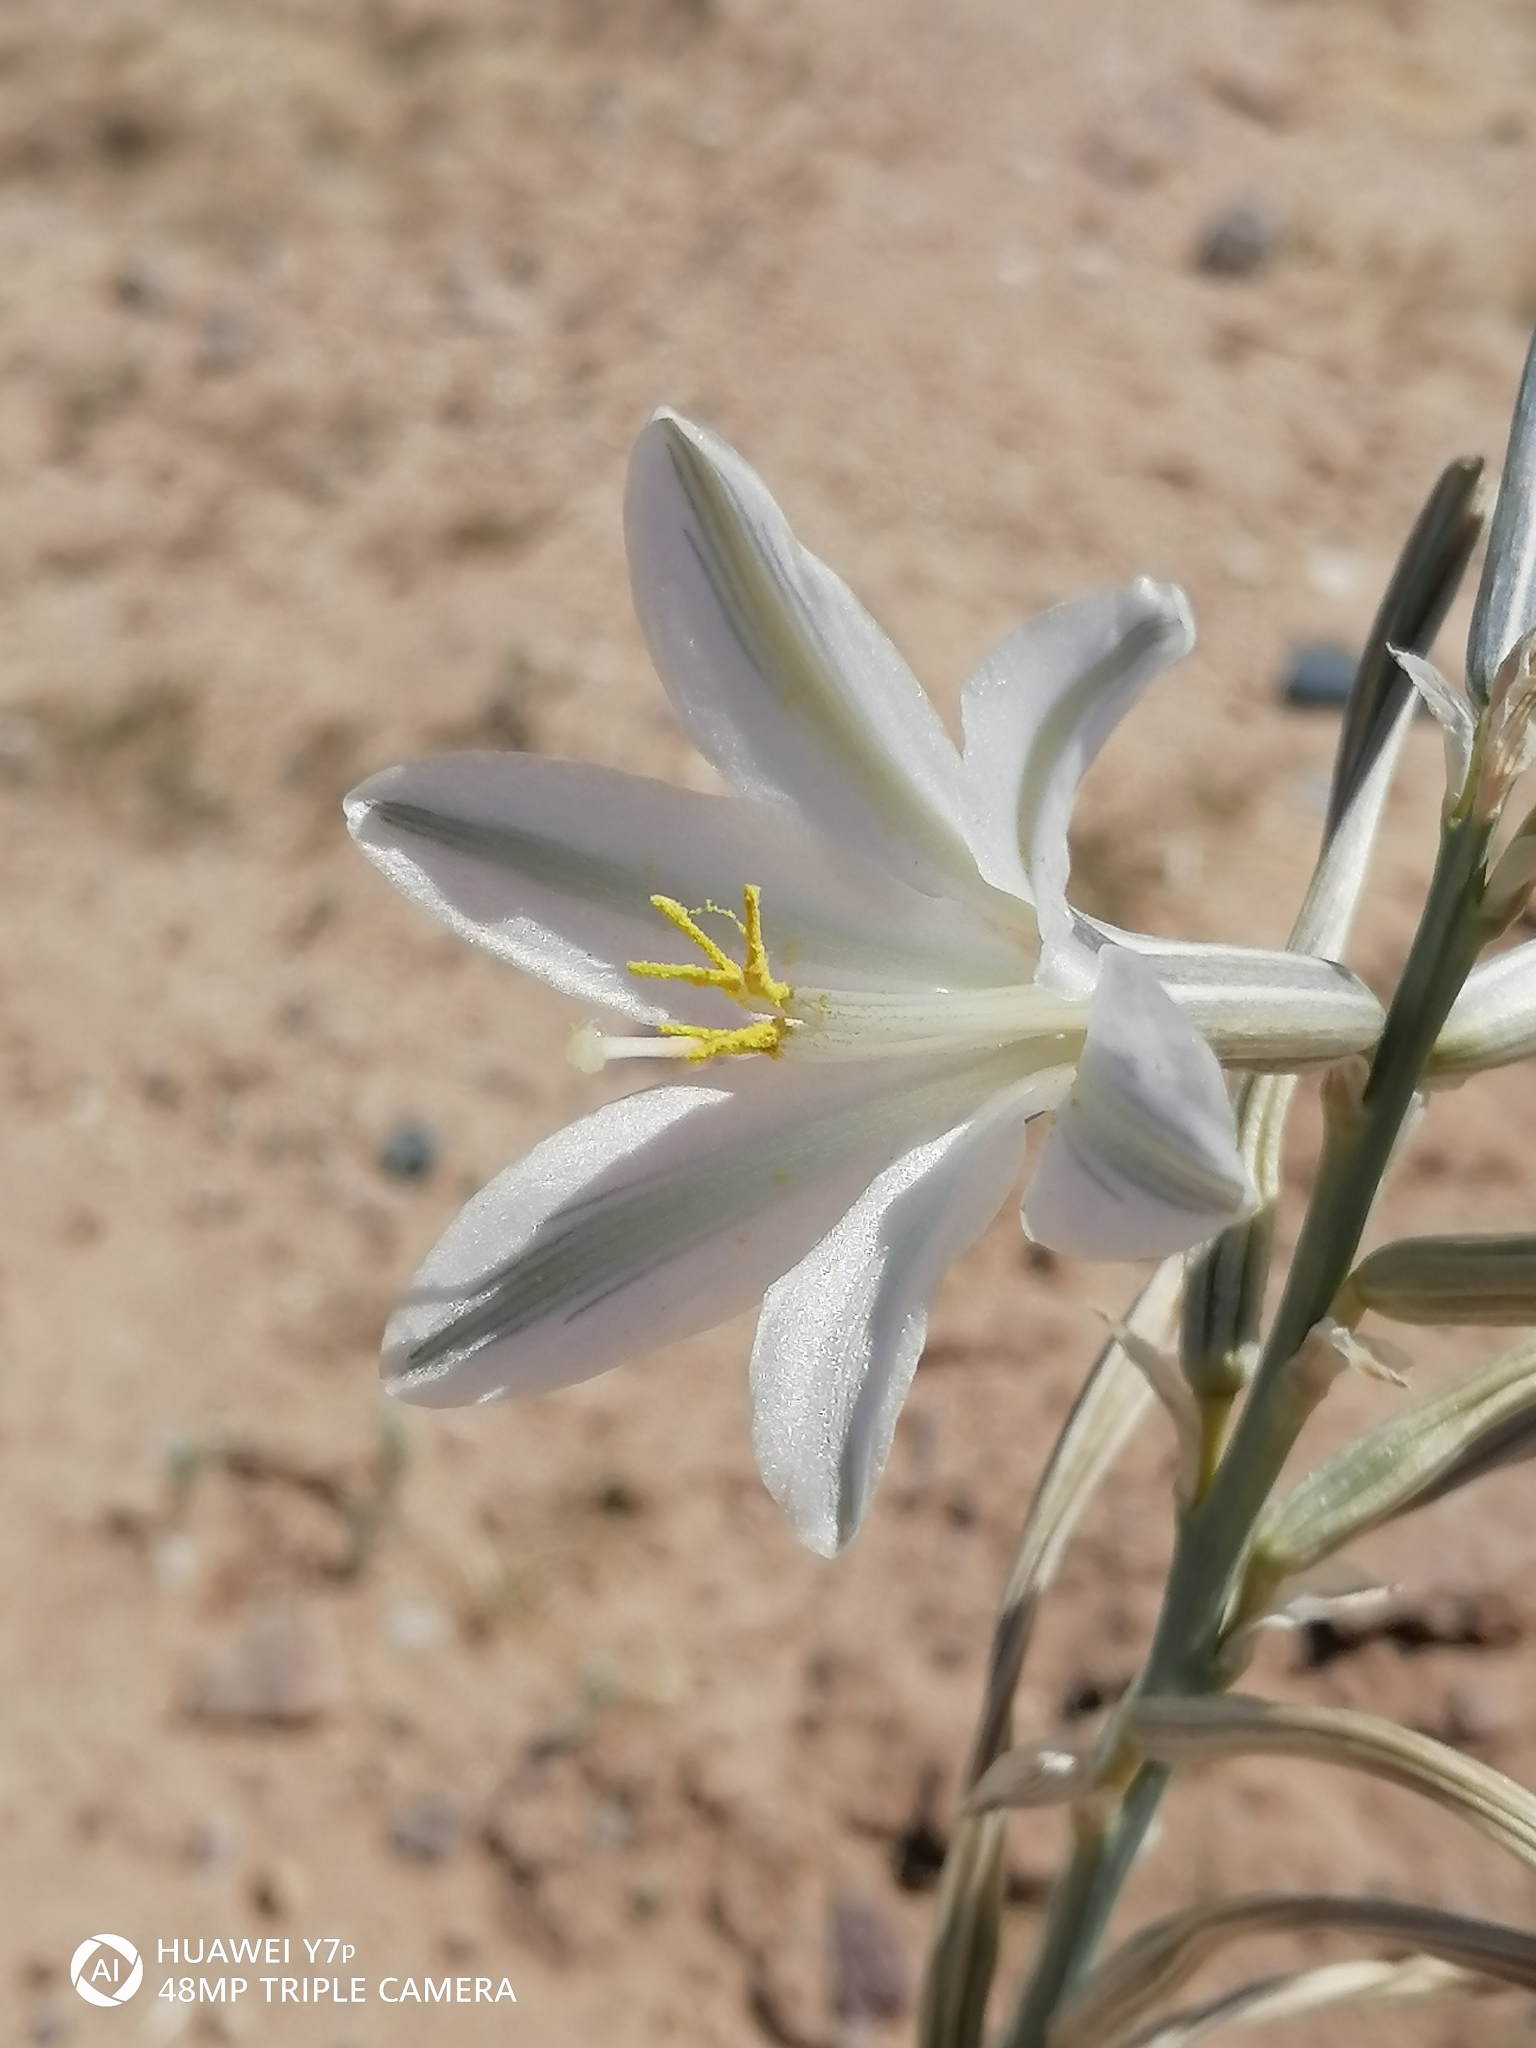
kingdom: Plantae
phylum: Tracheophyta
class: Liliopsida
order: Asparagales
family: Asparagaceae
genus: Hesperocallis
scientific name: Hesperocallis undulata
